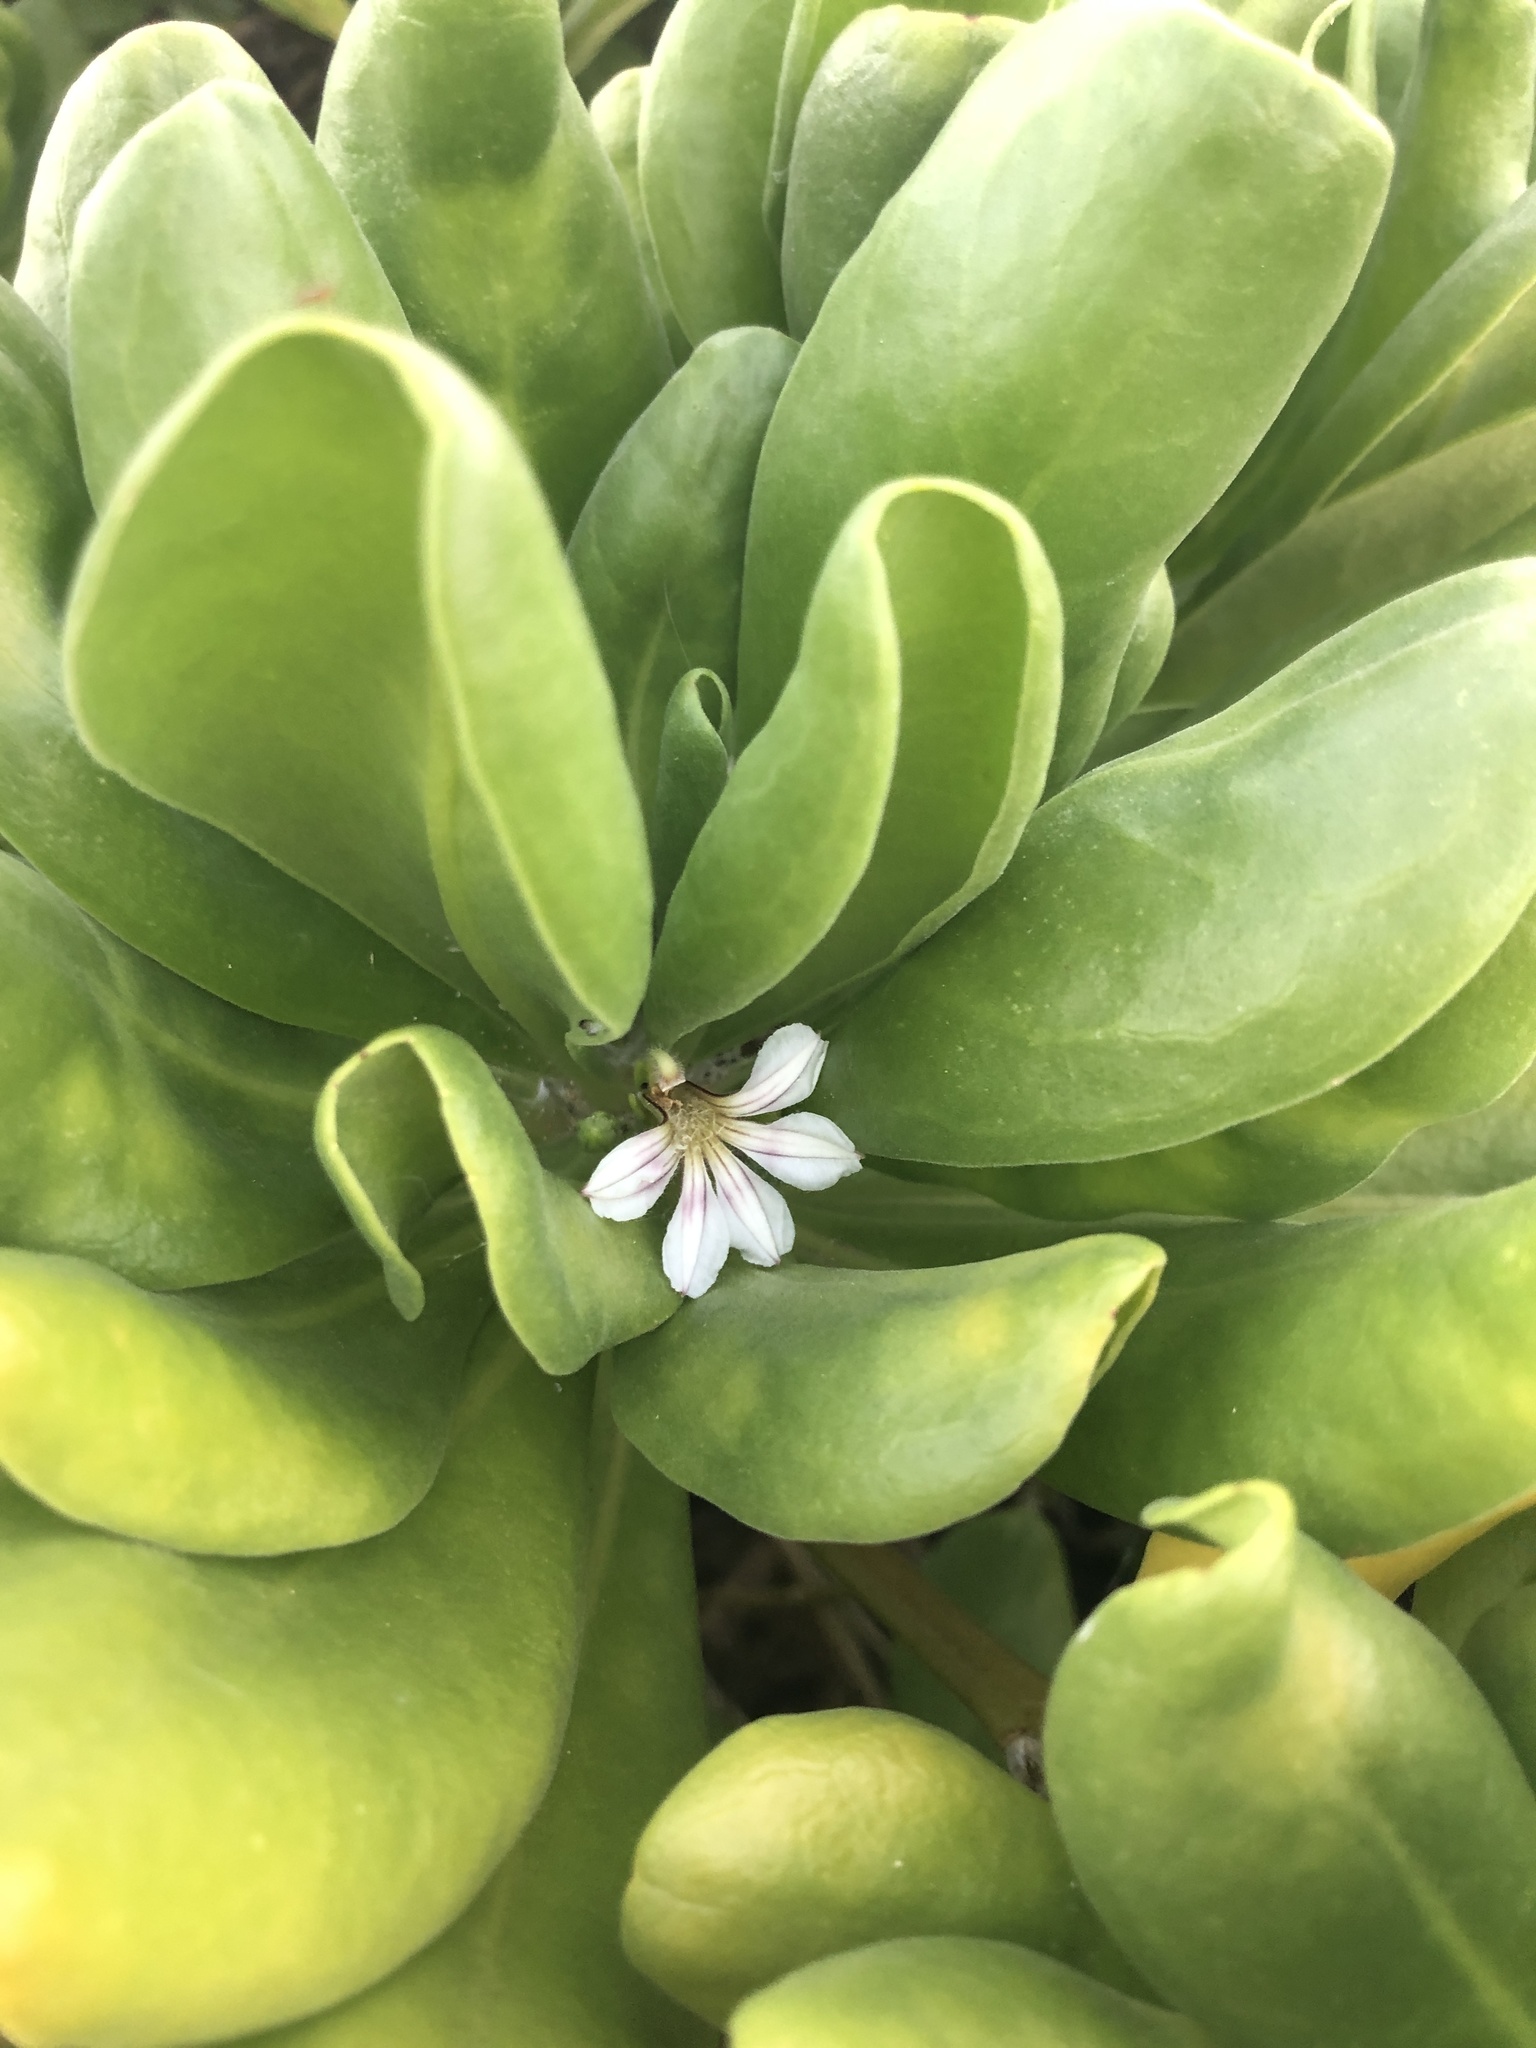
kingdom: Plantae
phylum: Tracheophyta
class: Magnoliopsida
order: Asterales
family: Goodeniaceae
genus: Scaevola
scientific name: Scaevola taccada
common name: Sea lettucetree
